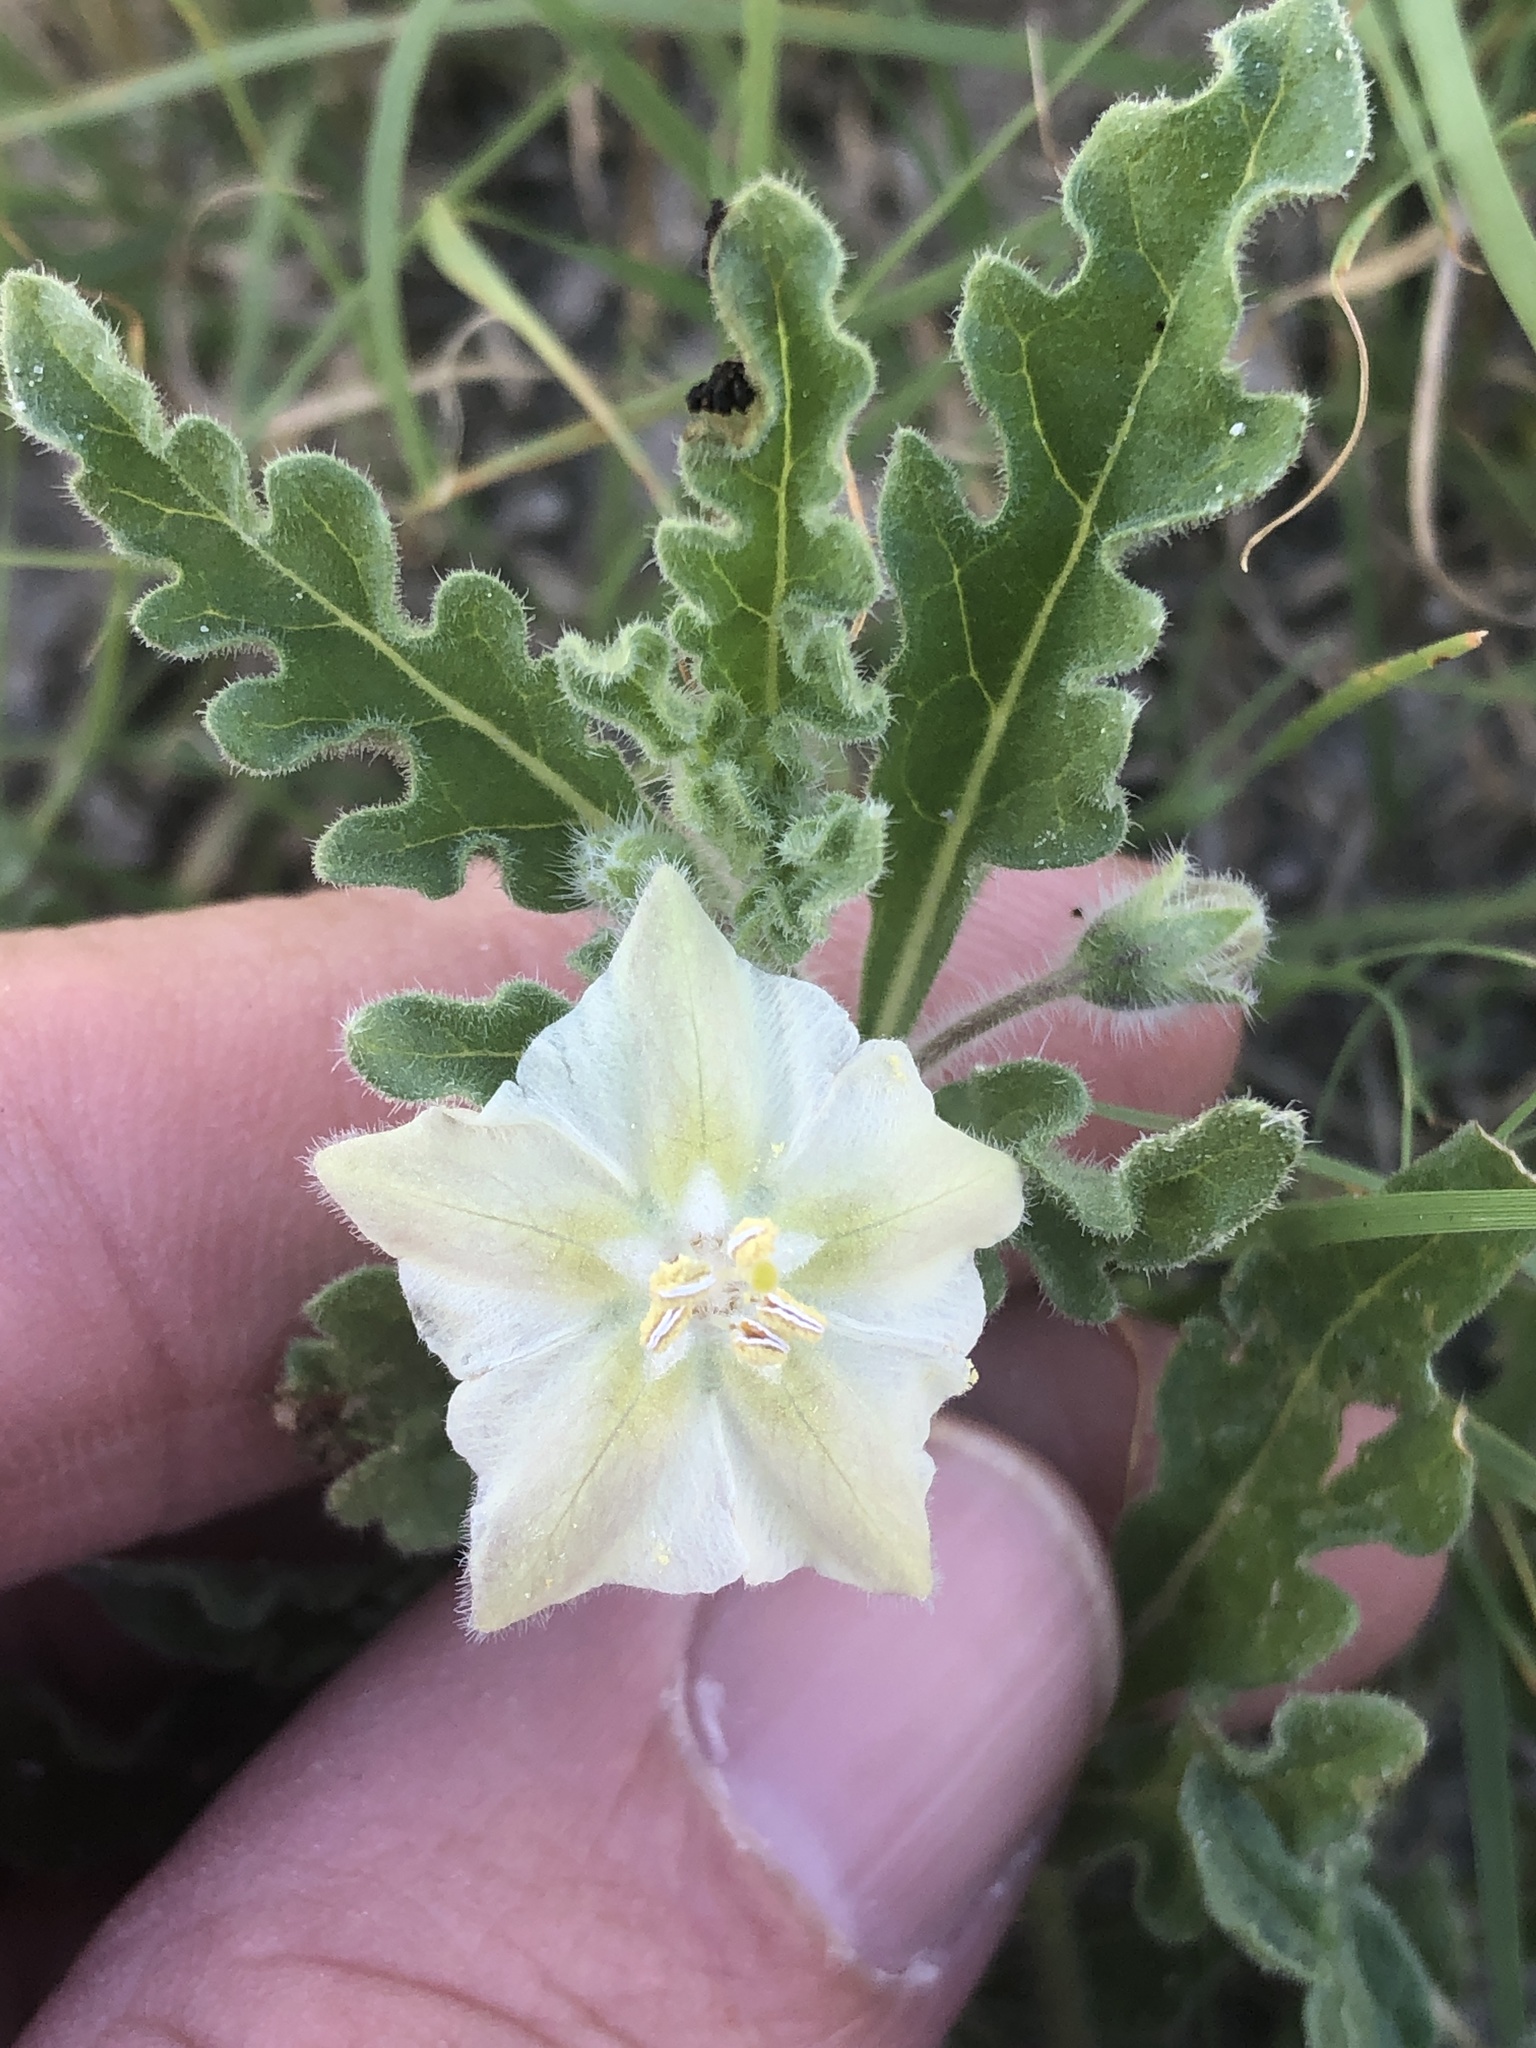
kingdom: Plantae
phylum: Tracheophyta
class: Magnoliopsida
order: Solanales
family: Solanaceae
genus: Chamaesaracha
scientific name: Chamaesaracha coniodes
